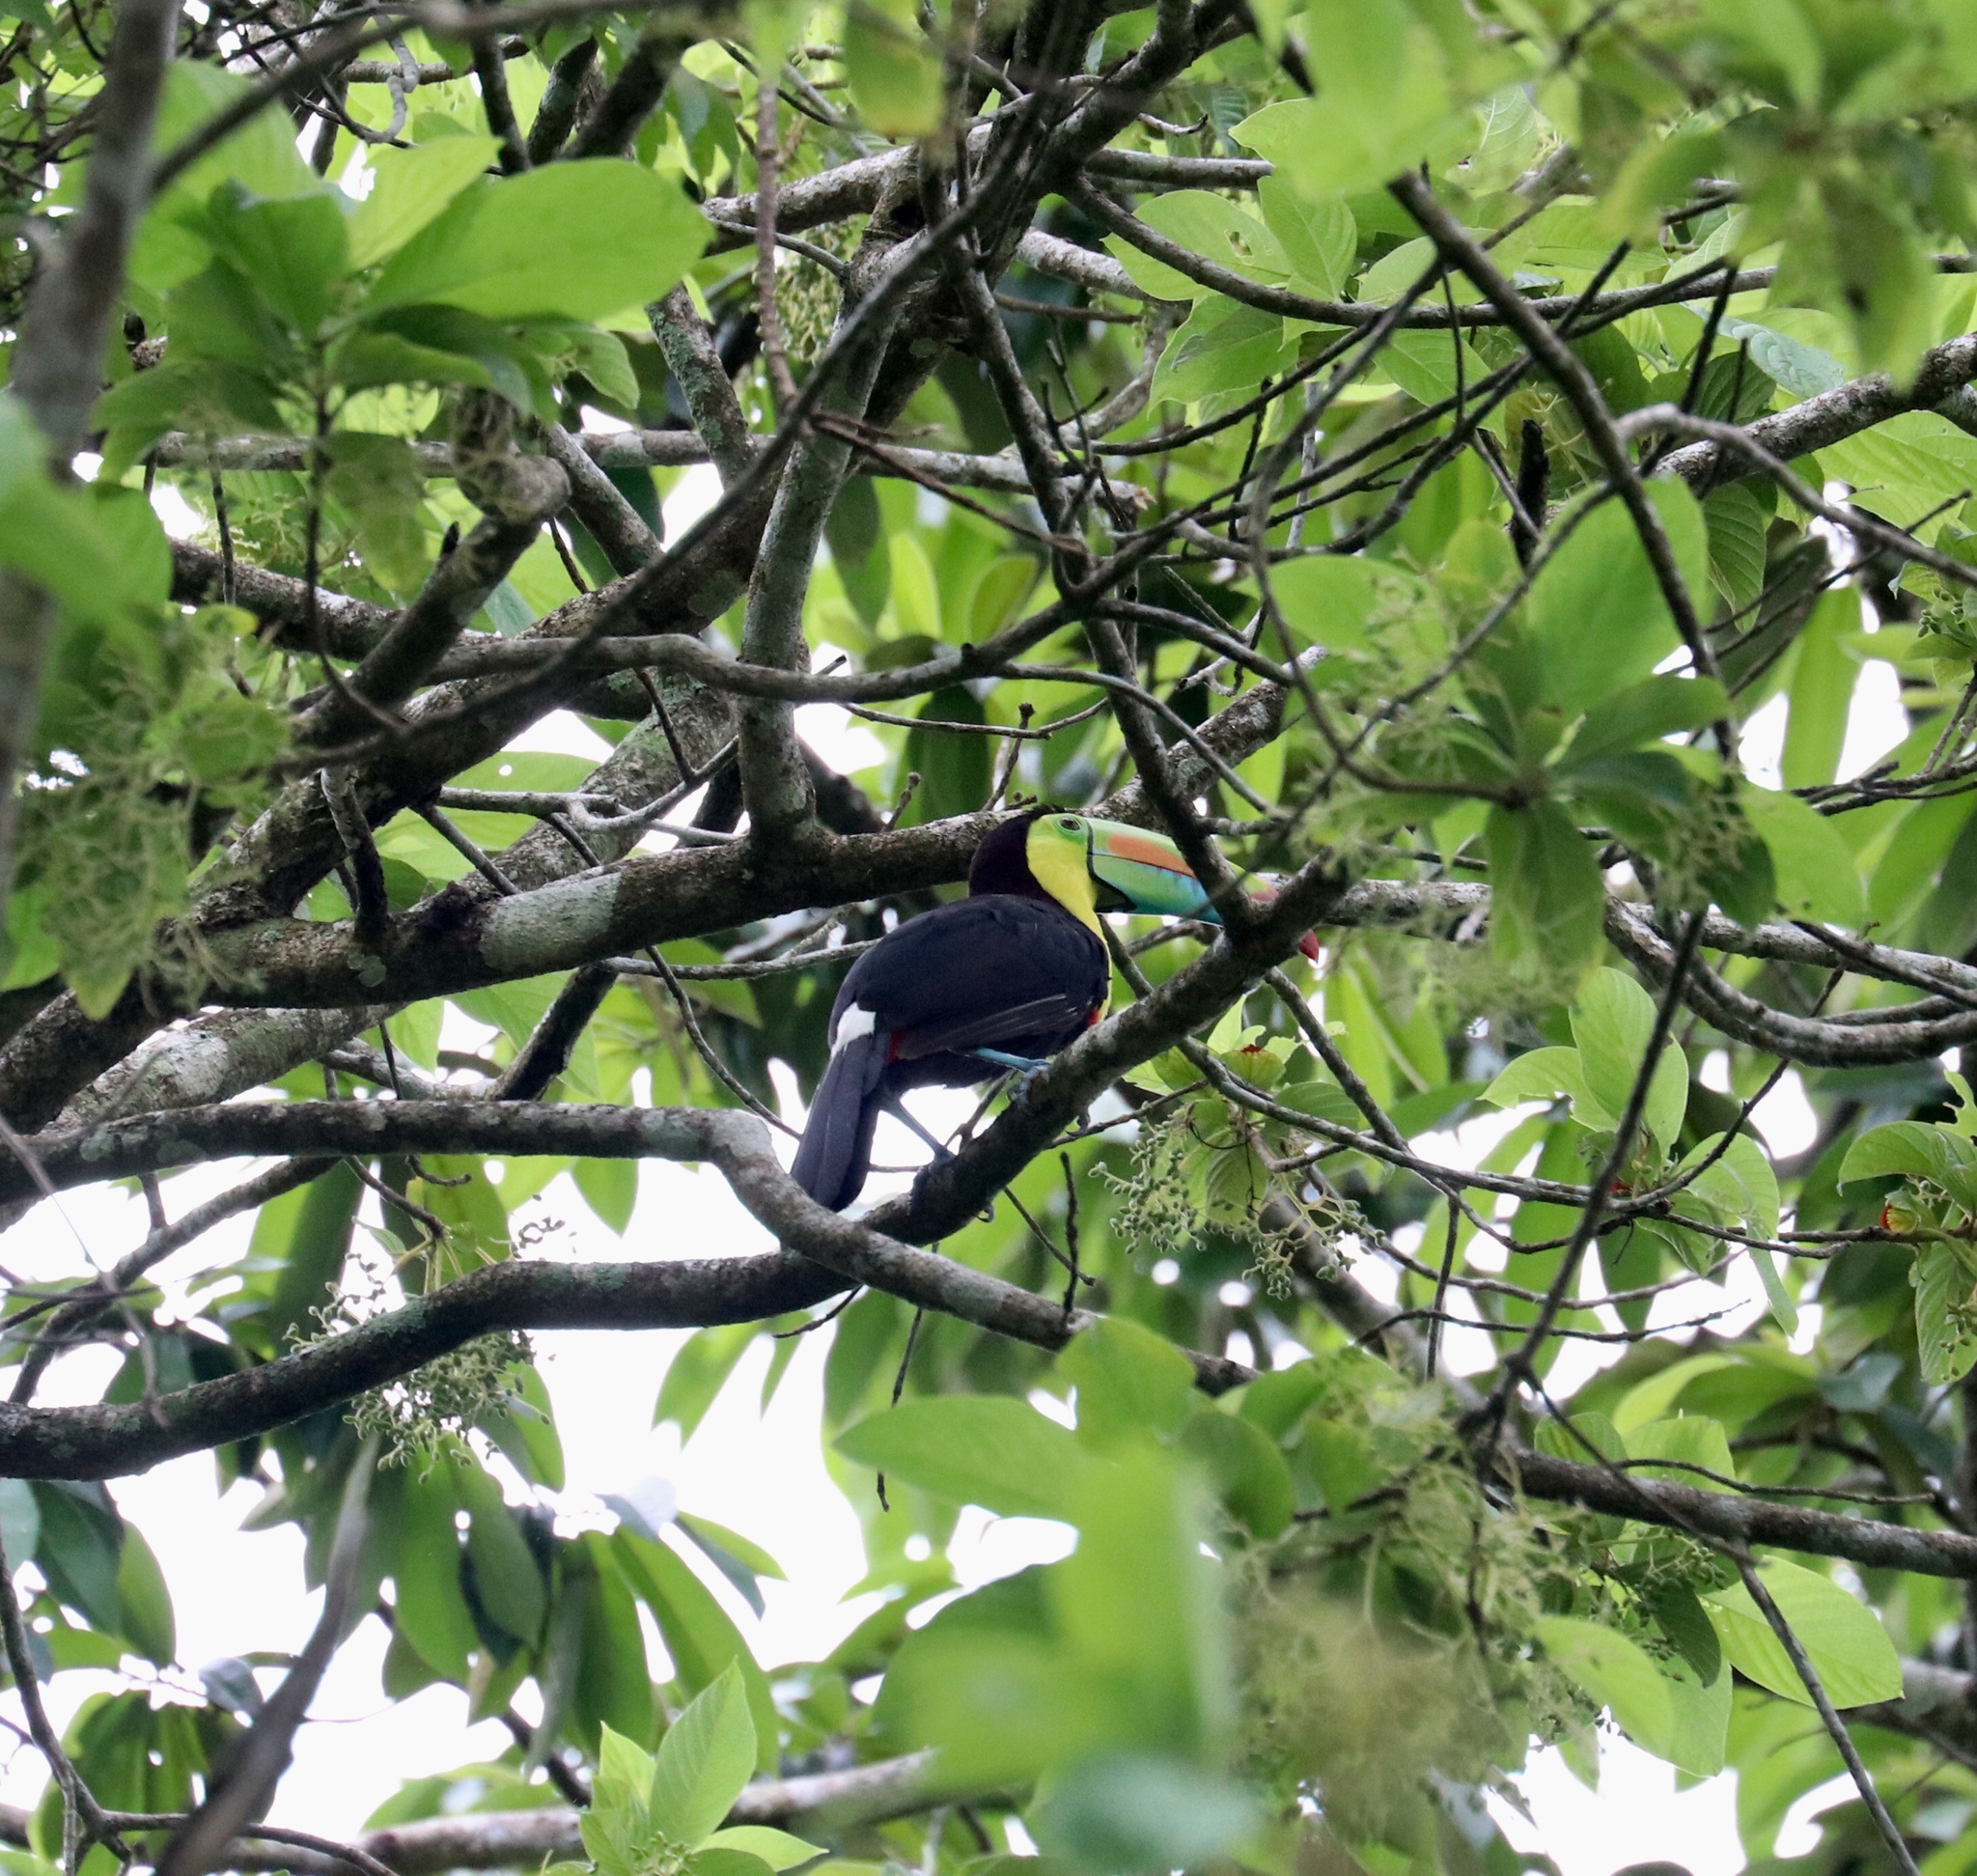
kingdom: Animalia
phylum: Chordata
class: Aves
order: Piciformes
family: Ramphastidae
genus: Ramphastos
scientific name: Ramphastos sulfuratus
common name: Keel-billed toucan
